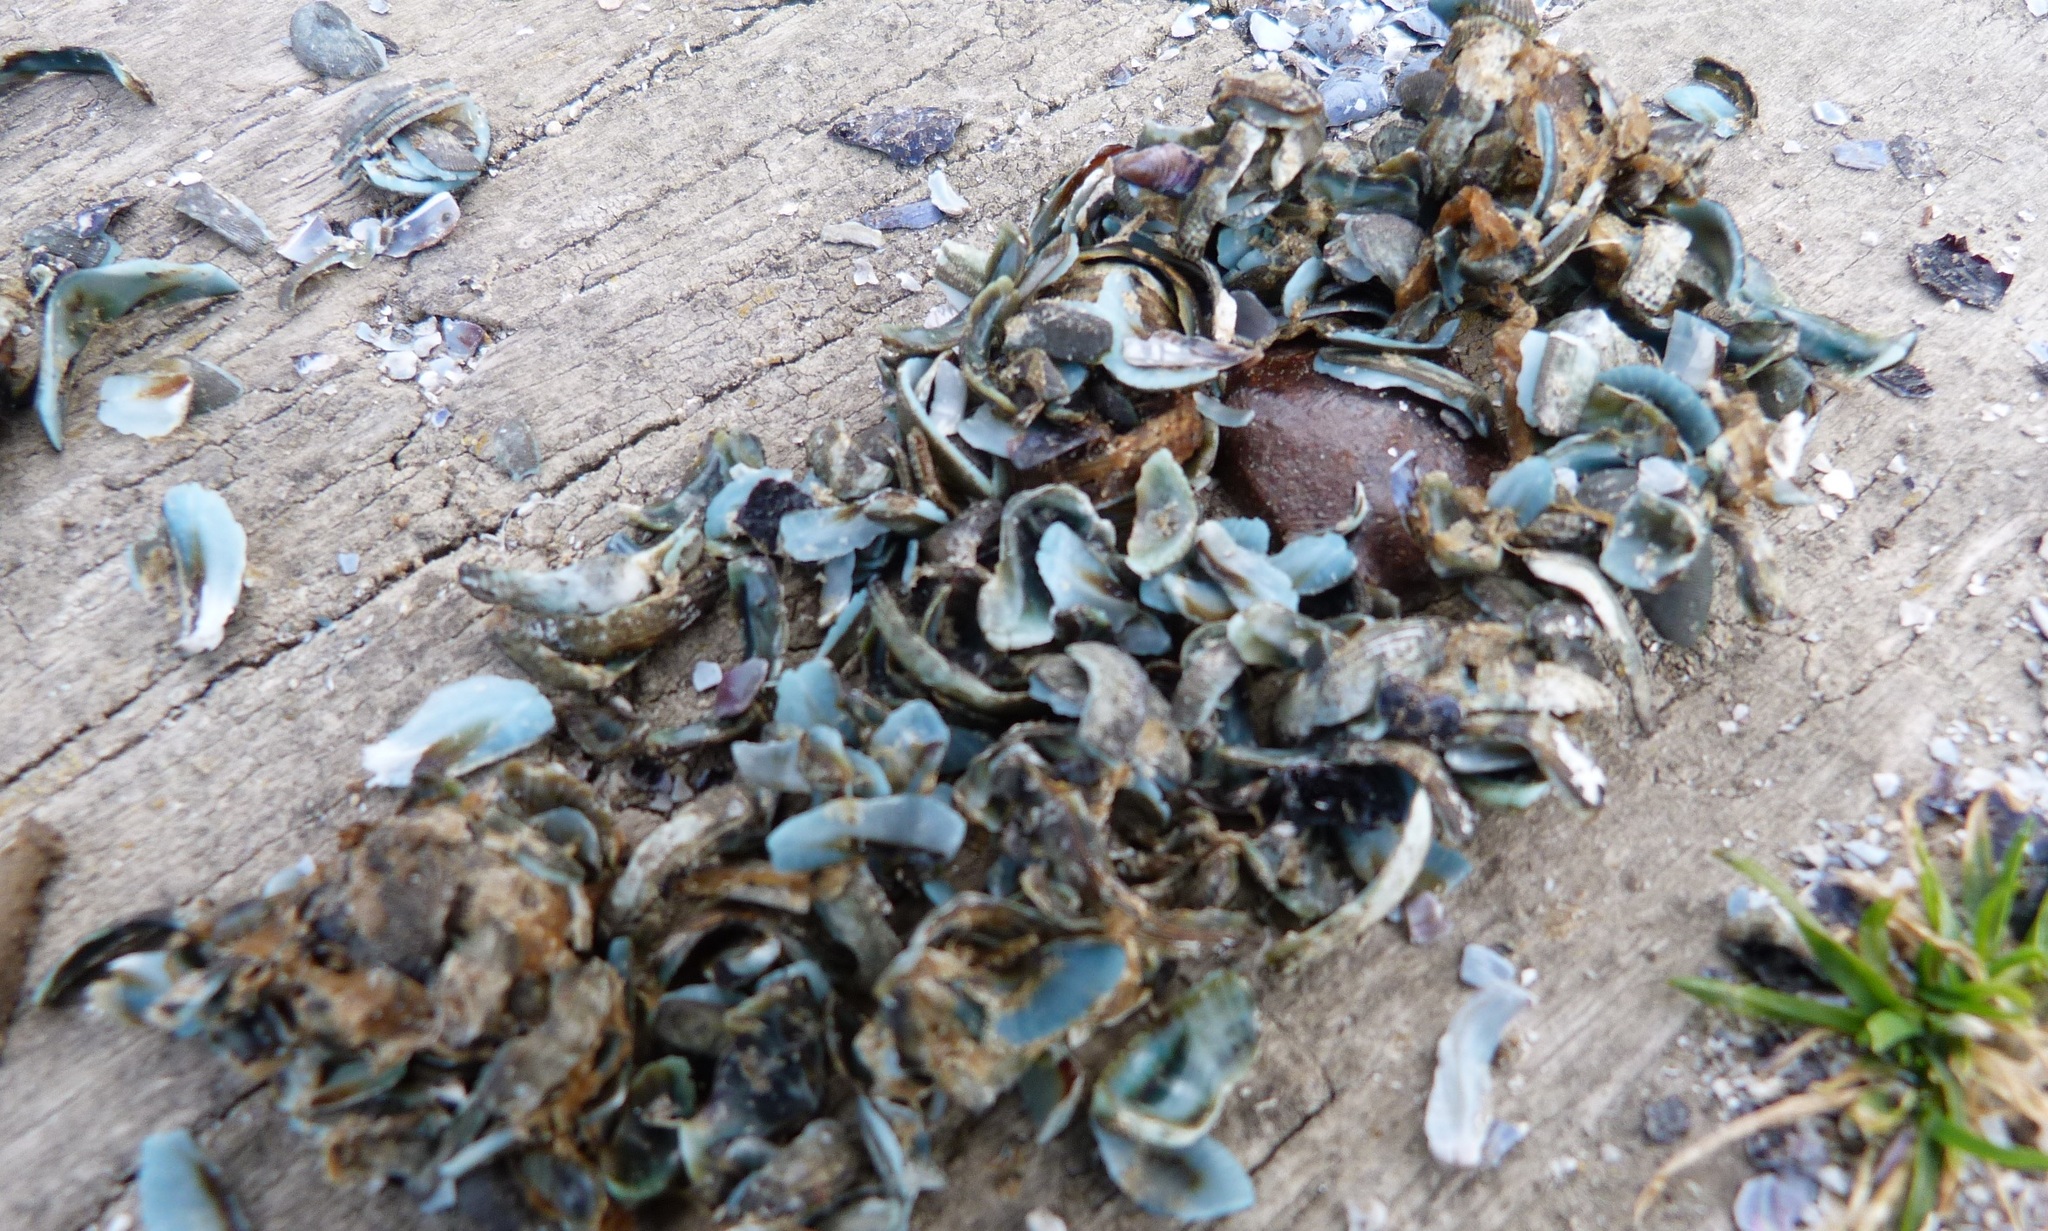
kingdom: Animalia
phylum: Chordata
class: Aves
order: Charadriiformes
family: Laridae
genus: Larus
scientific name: Larus dominicanus
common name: Kelp gull
